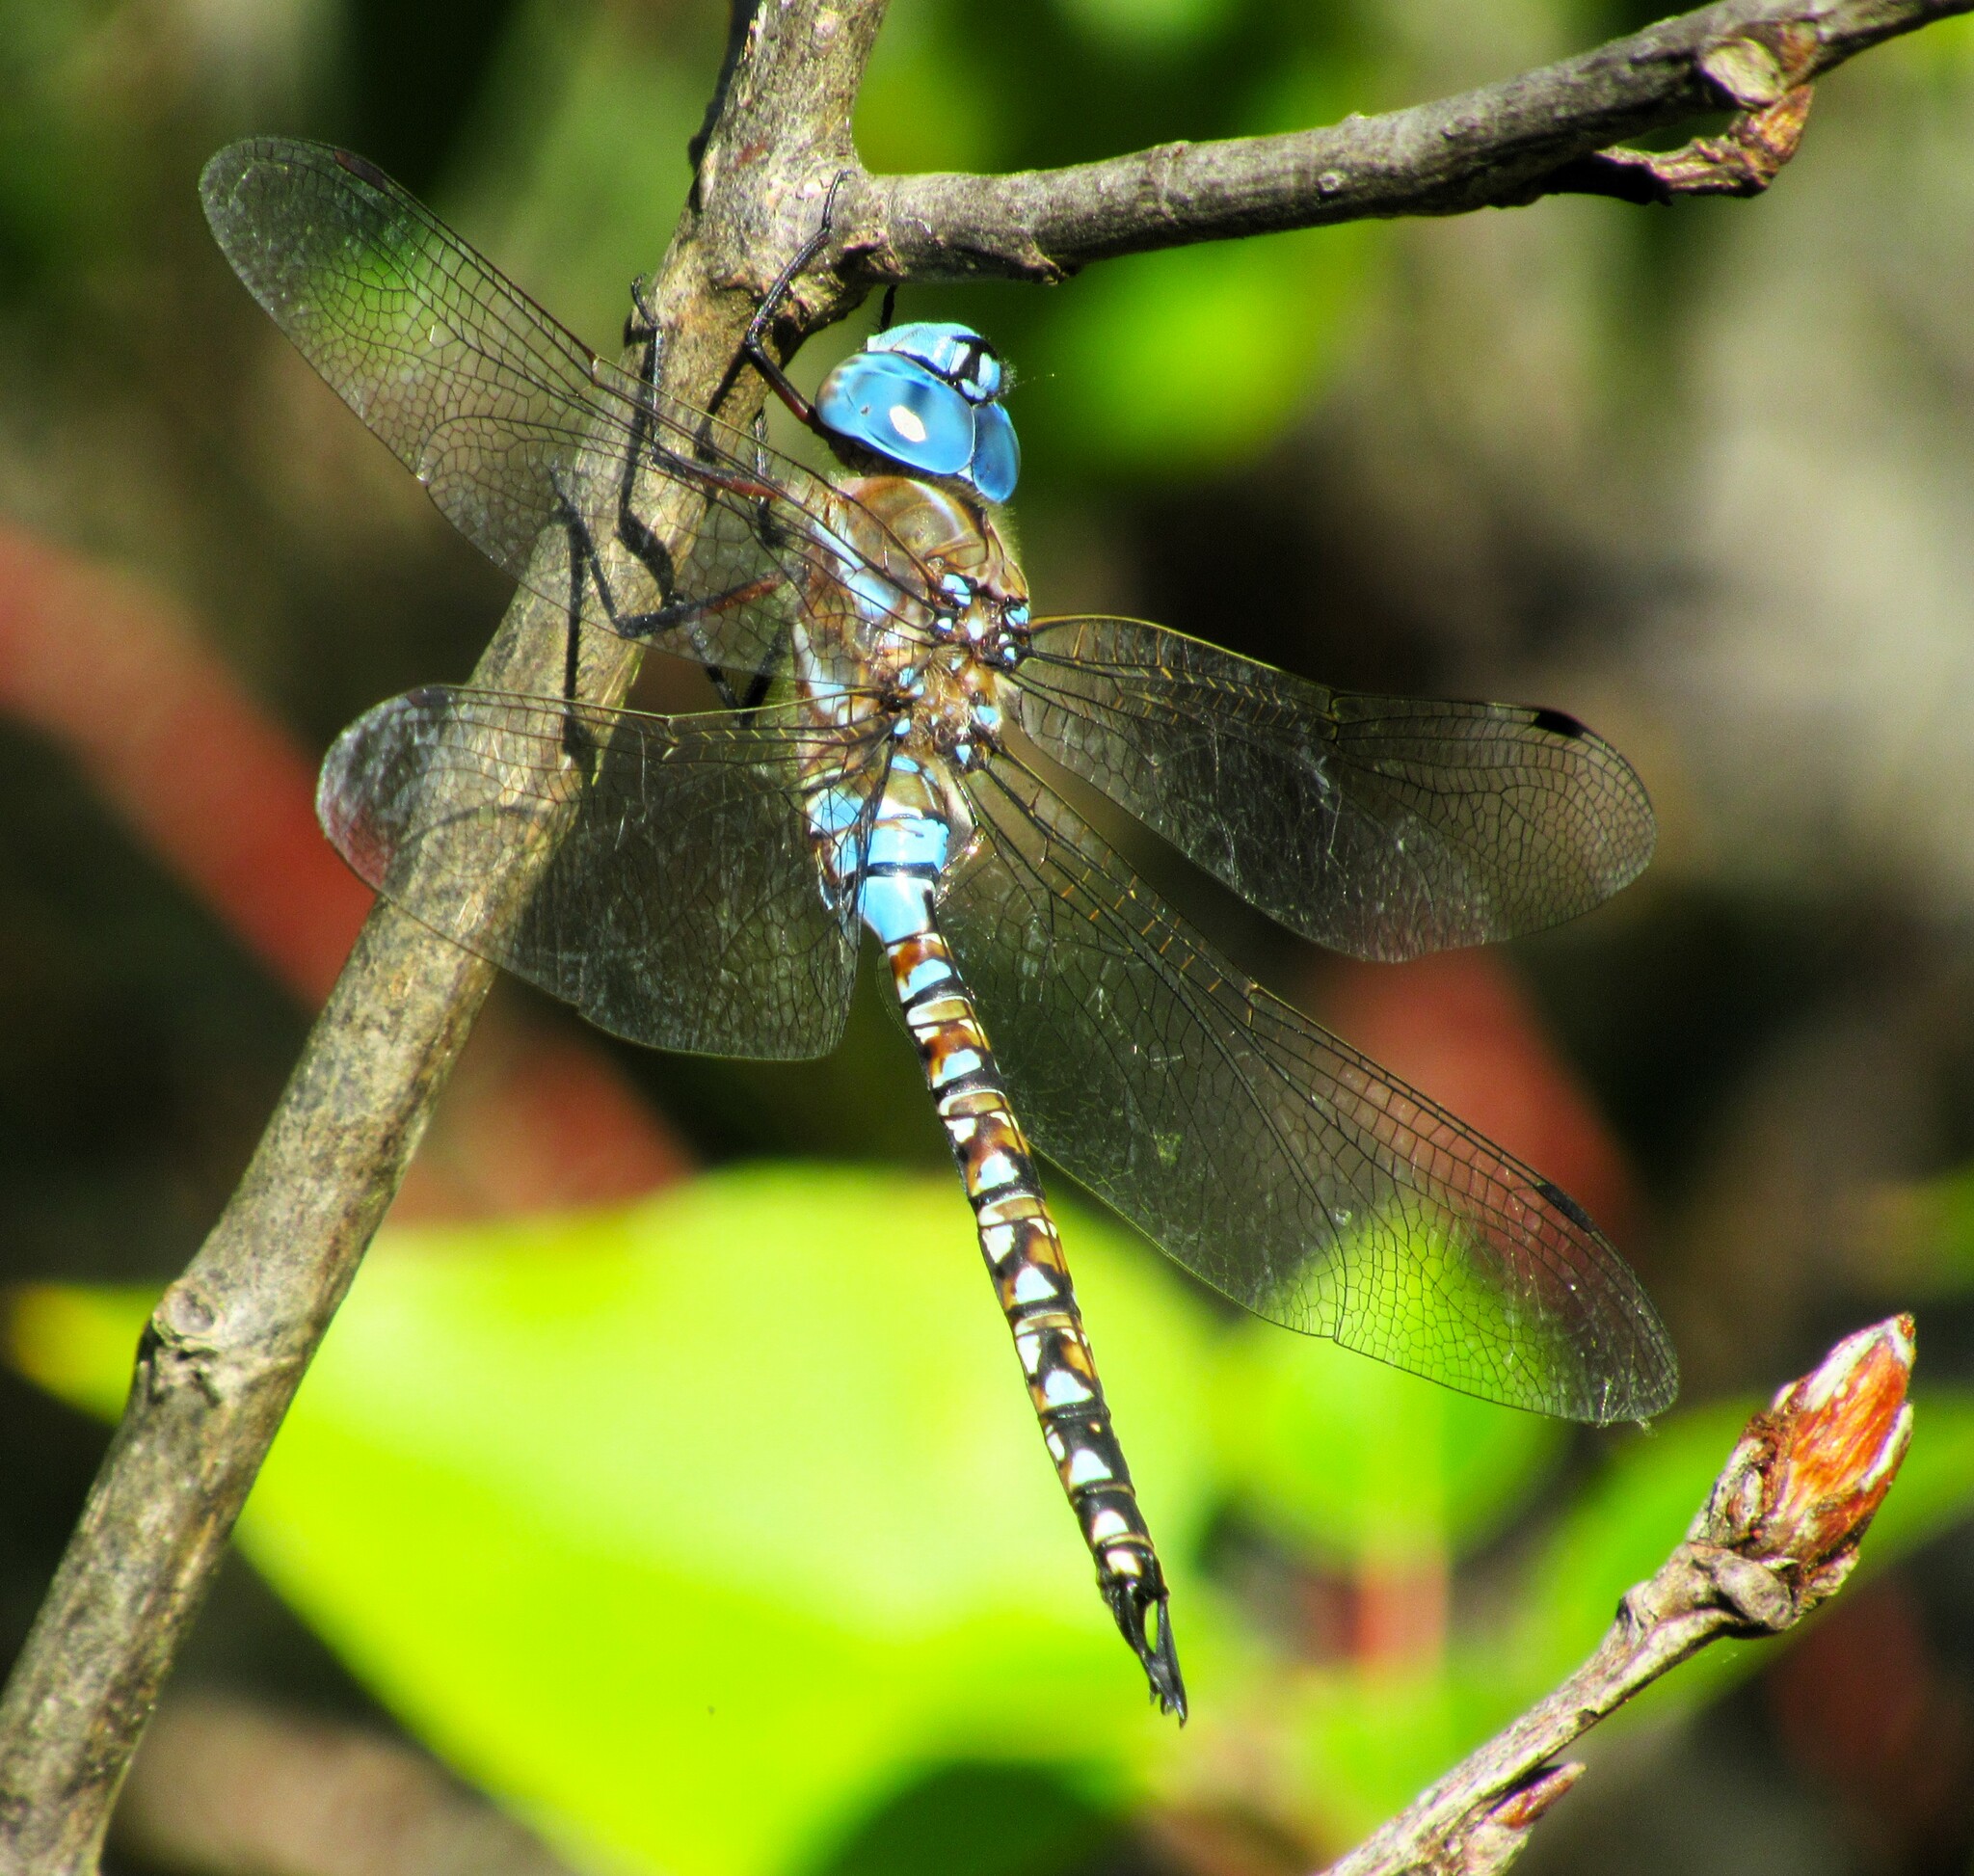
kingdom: Animalia
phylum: Arthropoda
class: Insecta
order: Odonata
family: Aeshnidae
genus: Rhionaeschna
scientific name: Rhionaeschna multicolor
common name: Blue-eyed darner
